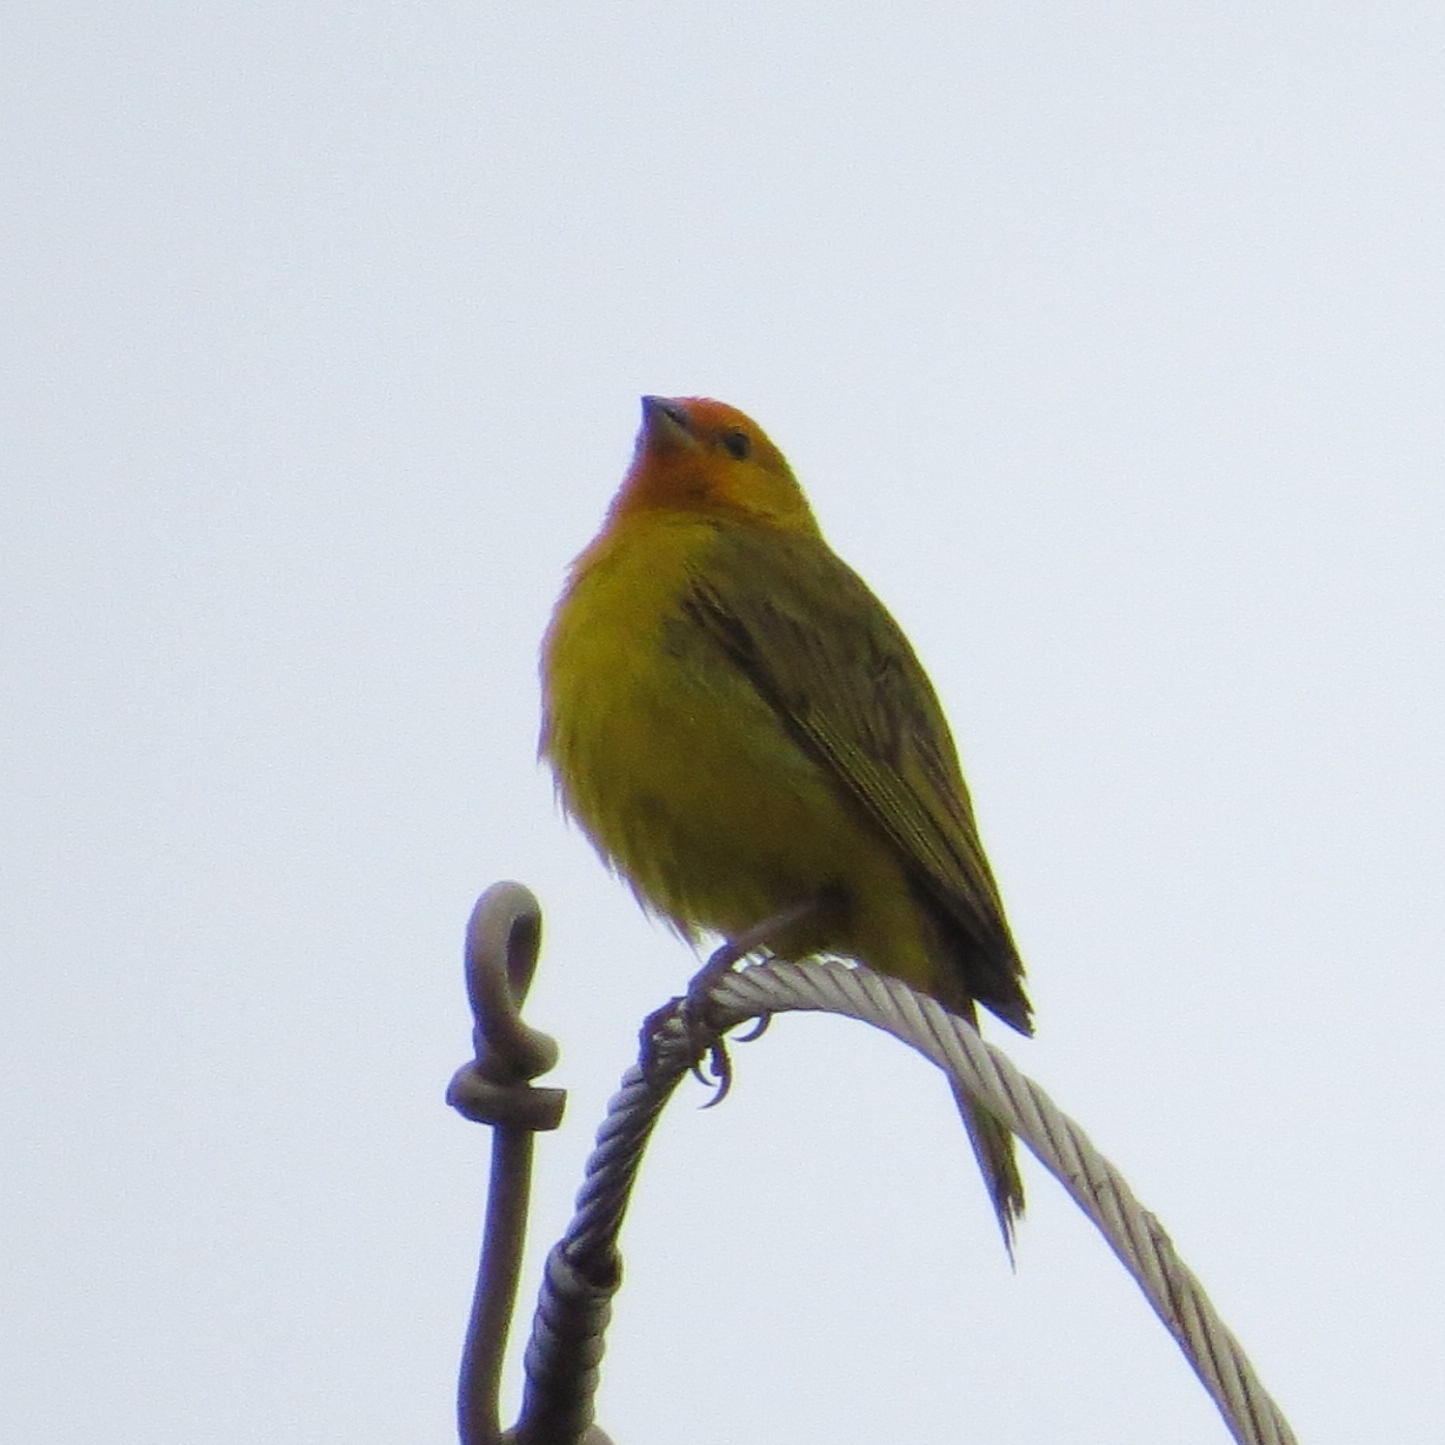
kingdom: Animalia
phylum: Chordata
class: Aves
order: Passeriformes
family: Thraupidae
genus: Sicalis
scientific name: Sicalis flaveola
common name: Saffron finch
